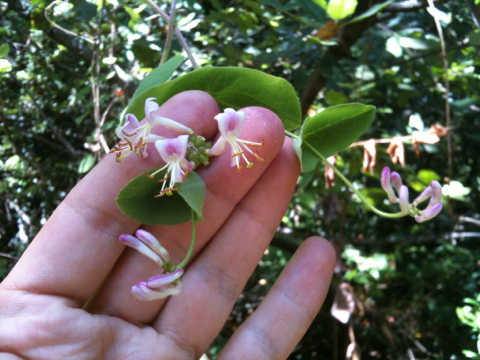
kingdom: Plantae
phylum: Tracheophyta
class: Magnoliopsida
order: Dipsacales
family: Caprifoliaceae
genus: Lonicera
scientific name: Lonicera hispidula
